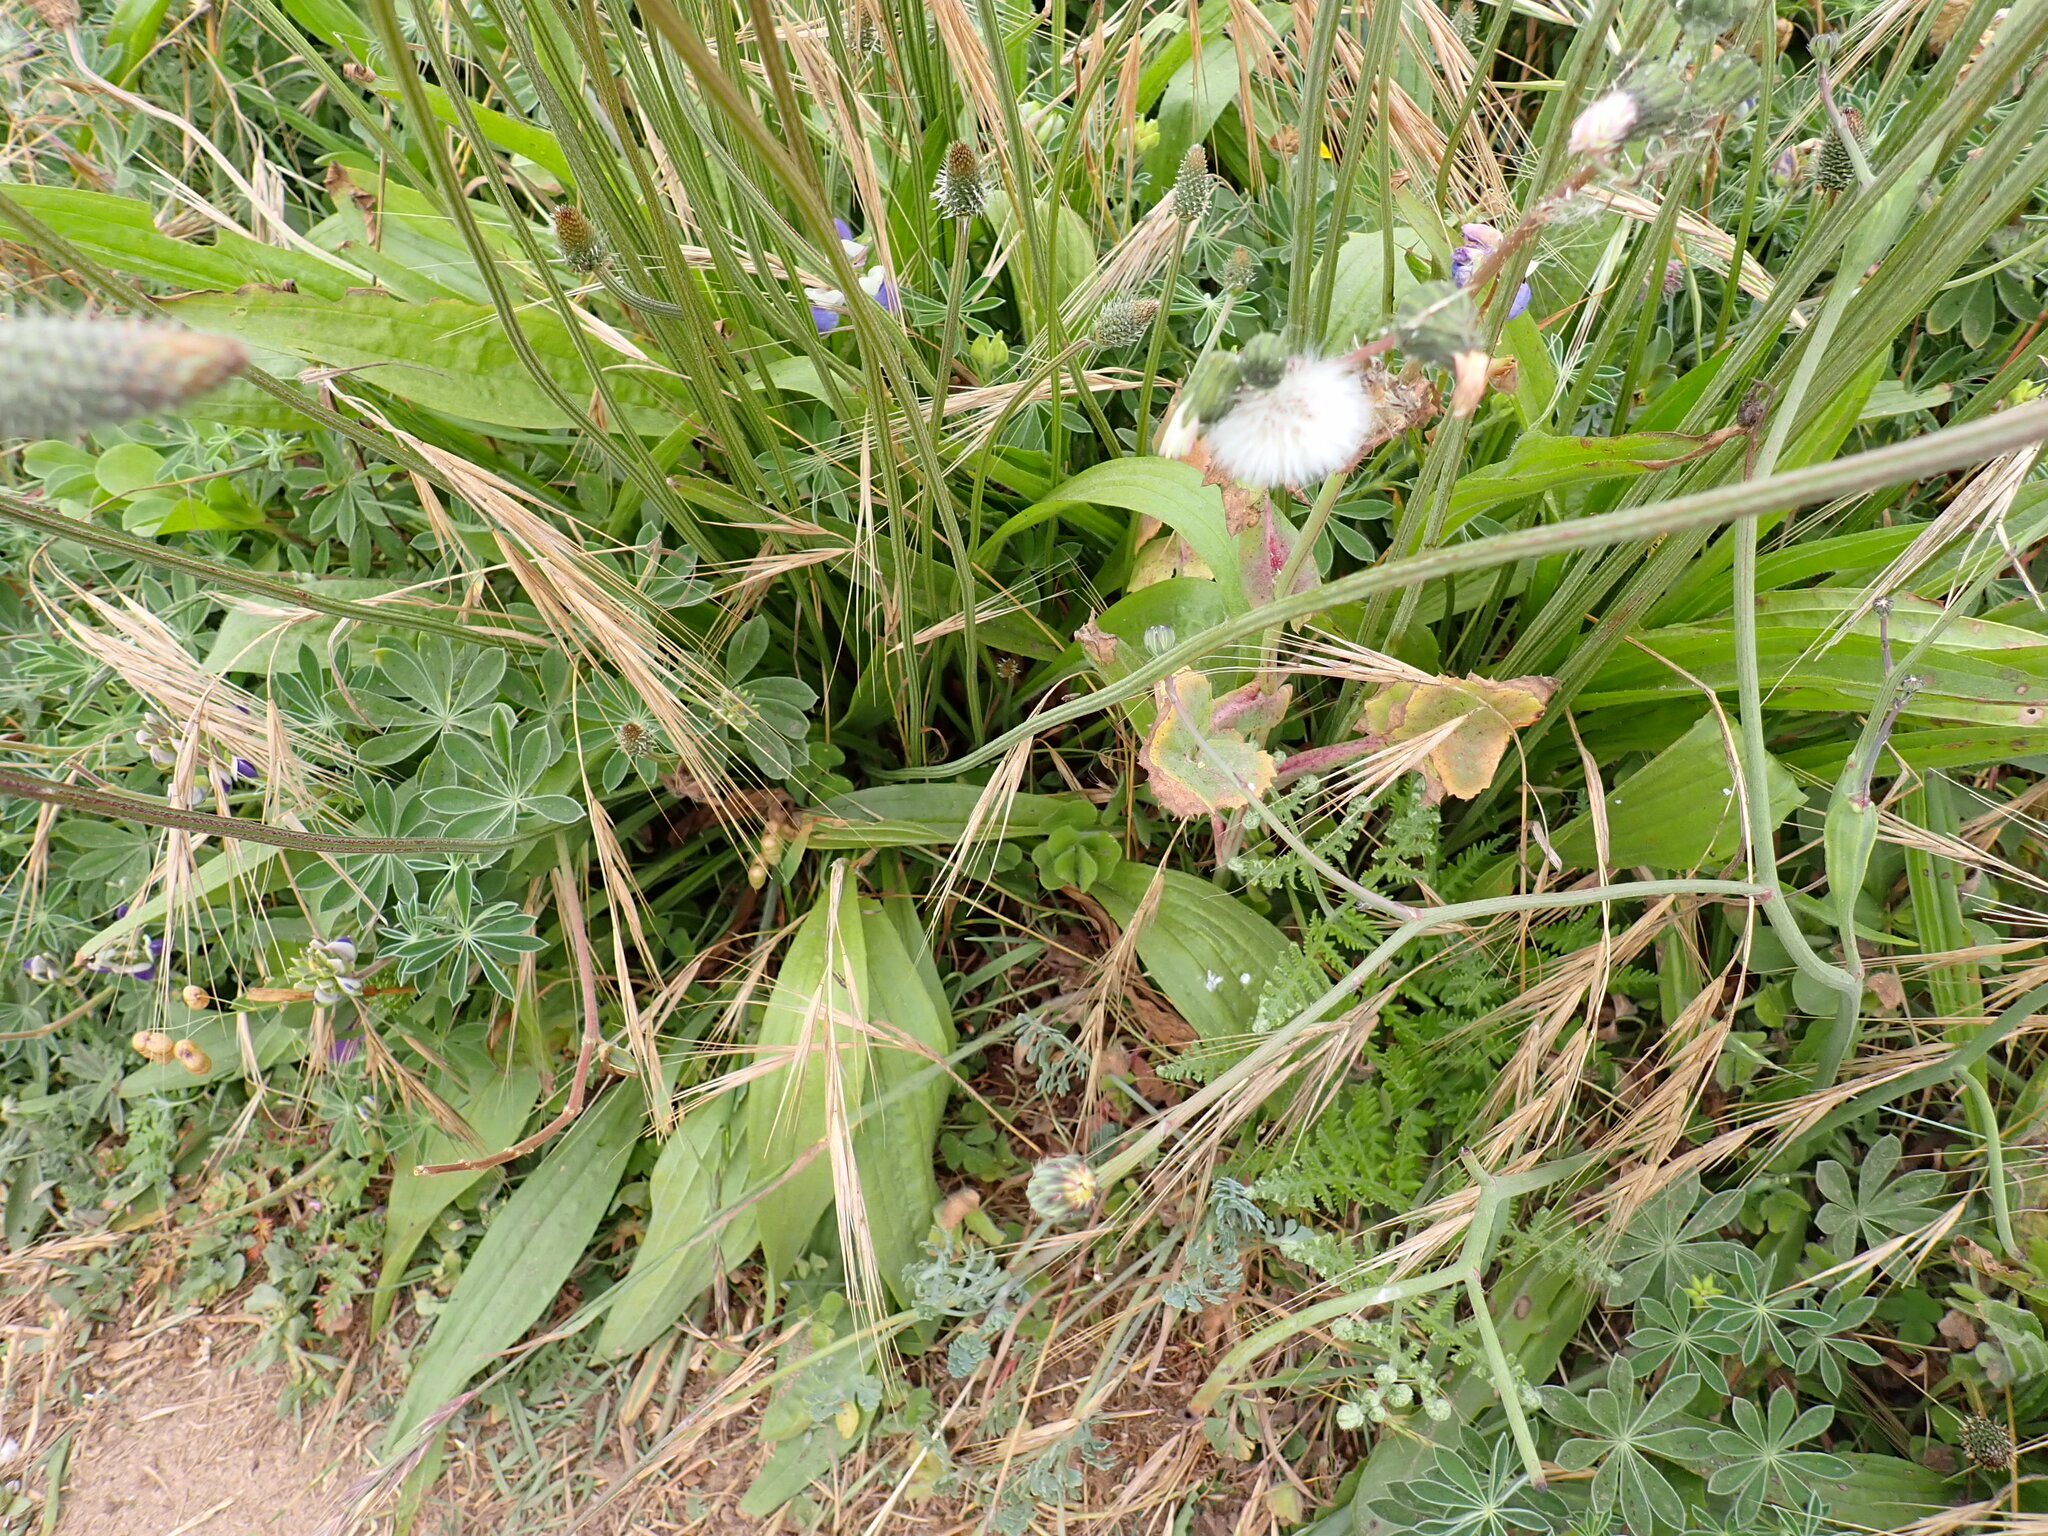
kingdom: Plantae
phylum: Tracheophyta
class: Magnoliopsida
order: Lamiales
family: Plantaginaceae
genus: Plantago
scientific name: Plantago lanceolata
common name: Ribwort plantain
